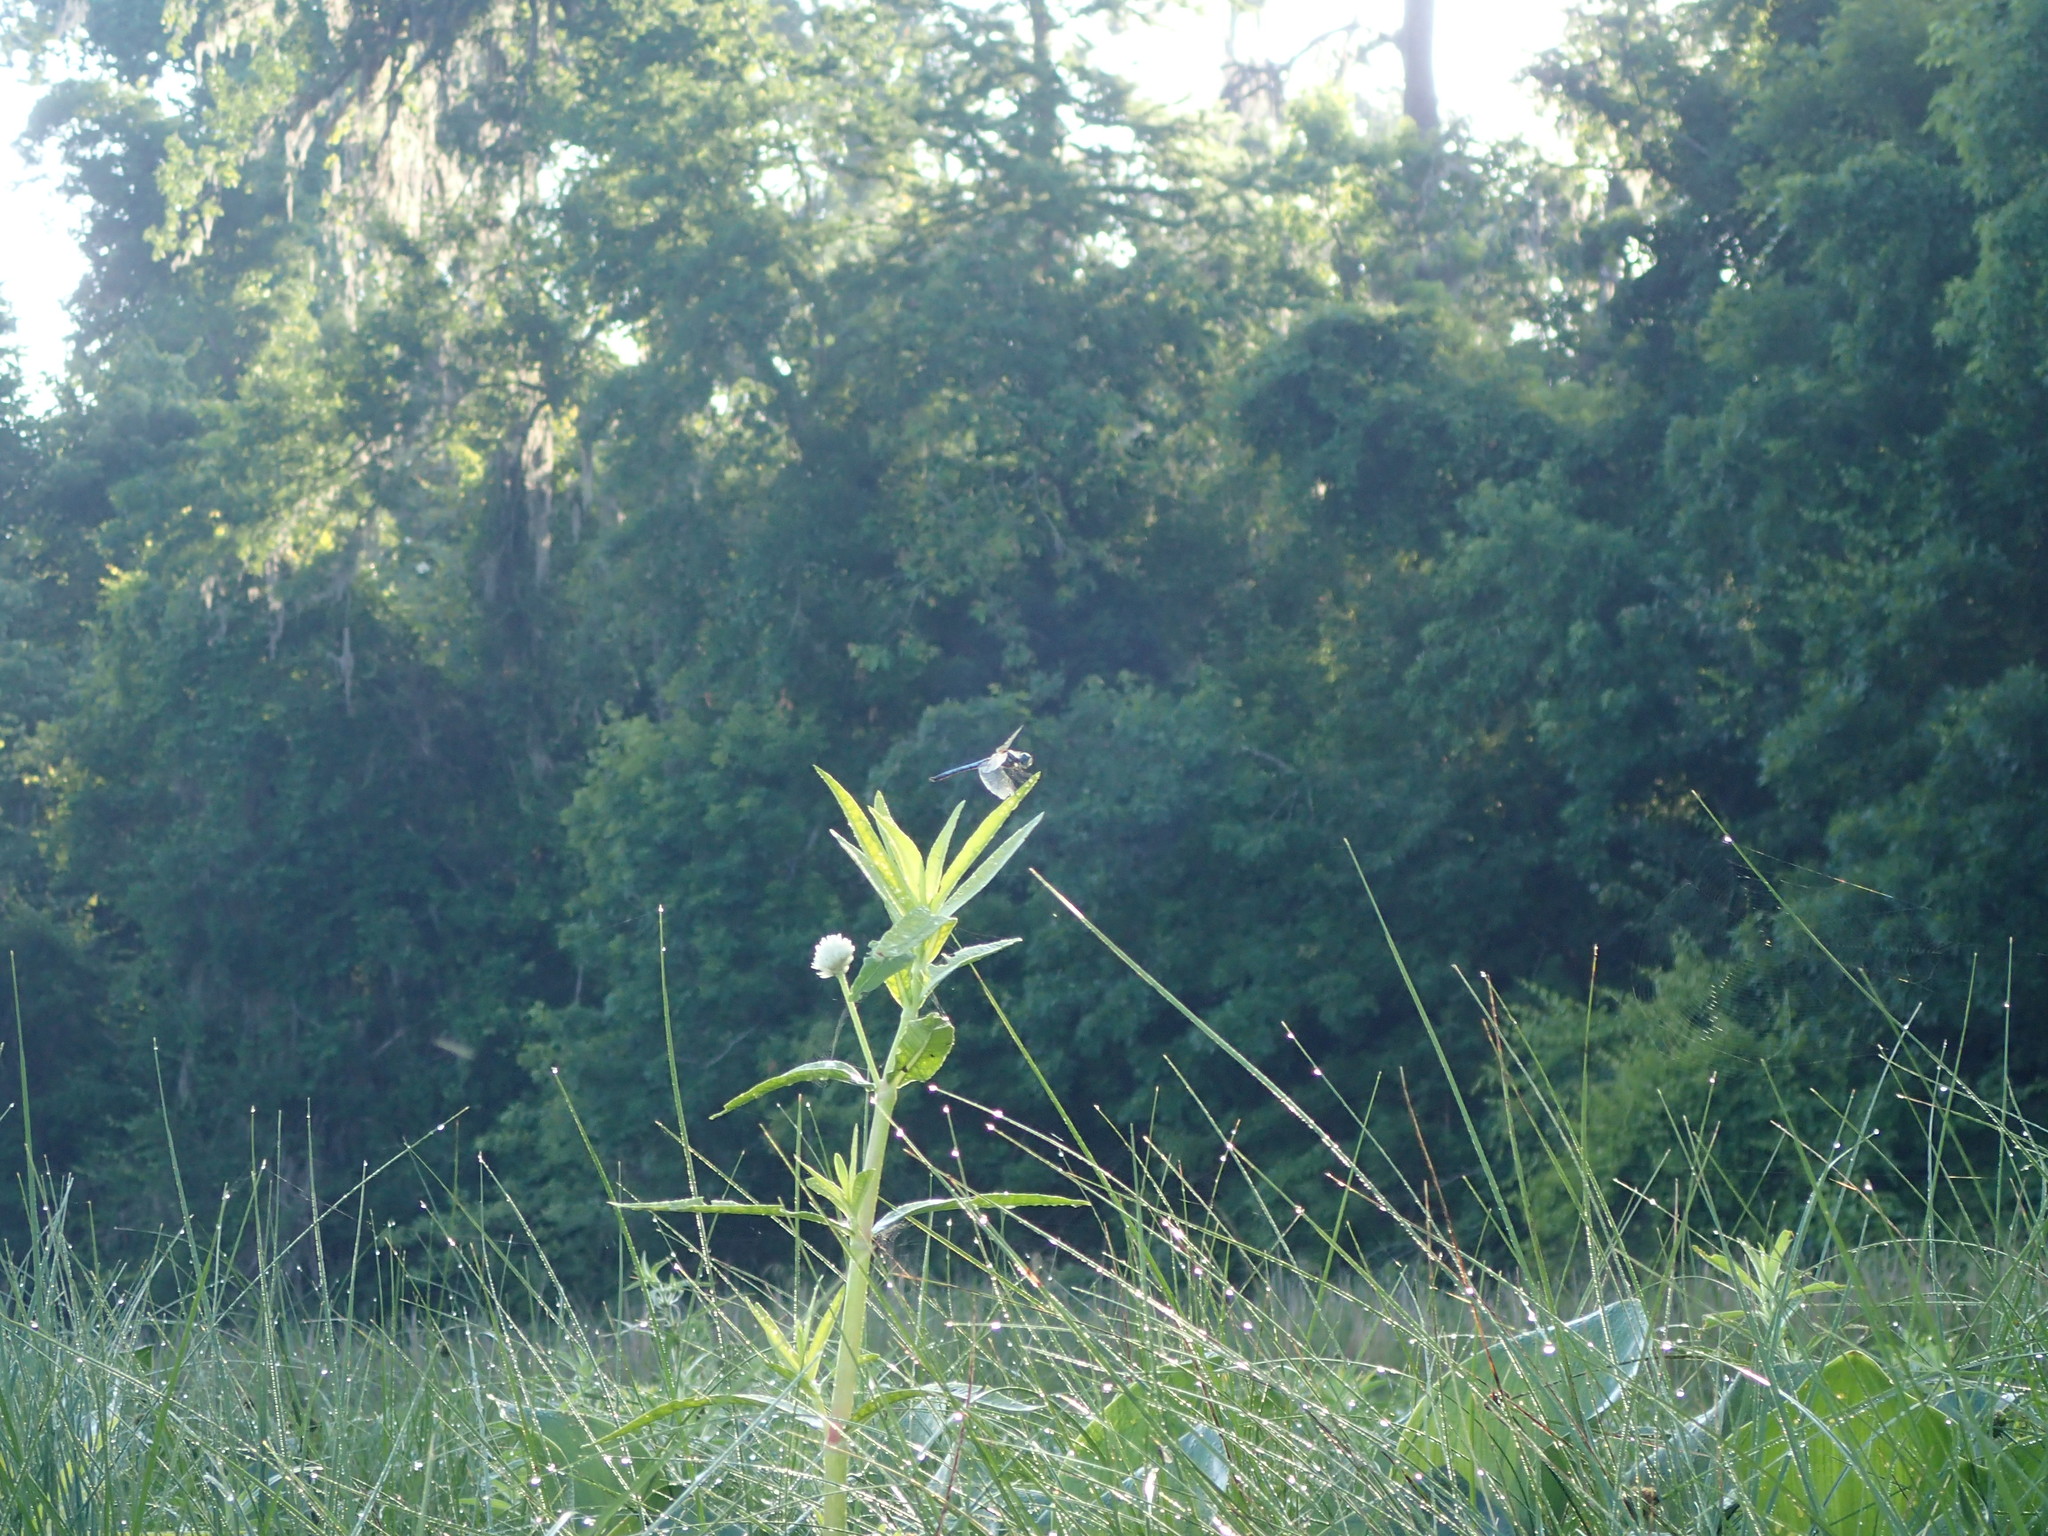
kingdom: Animalia
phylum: Arthropoda
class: Insecta
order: Odonata
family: Libellulidae
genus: Pachydiplax
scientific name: Pachydiplax longipennis
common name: Blue dasher
